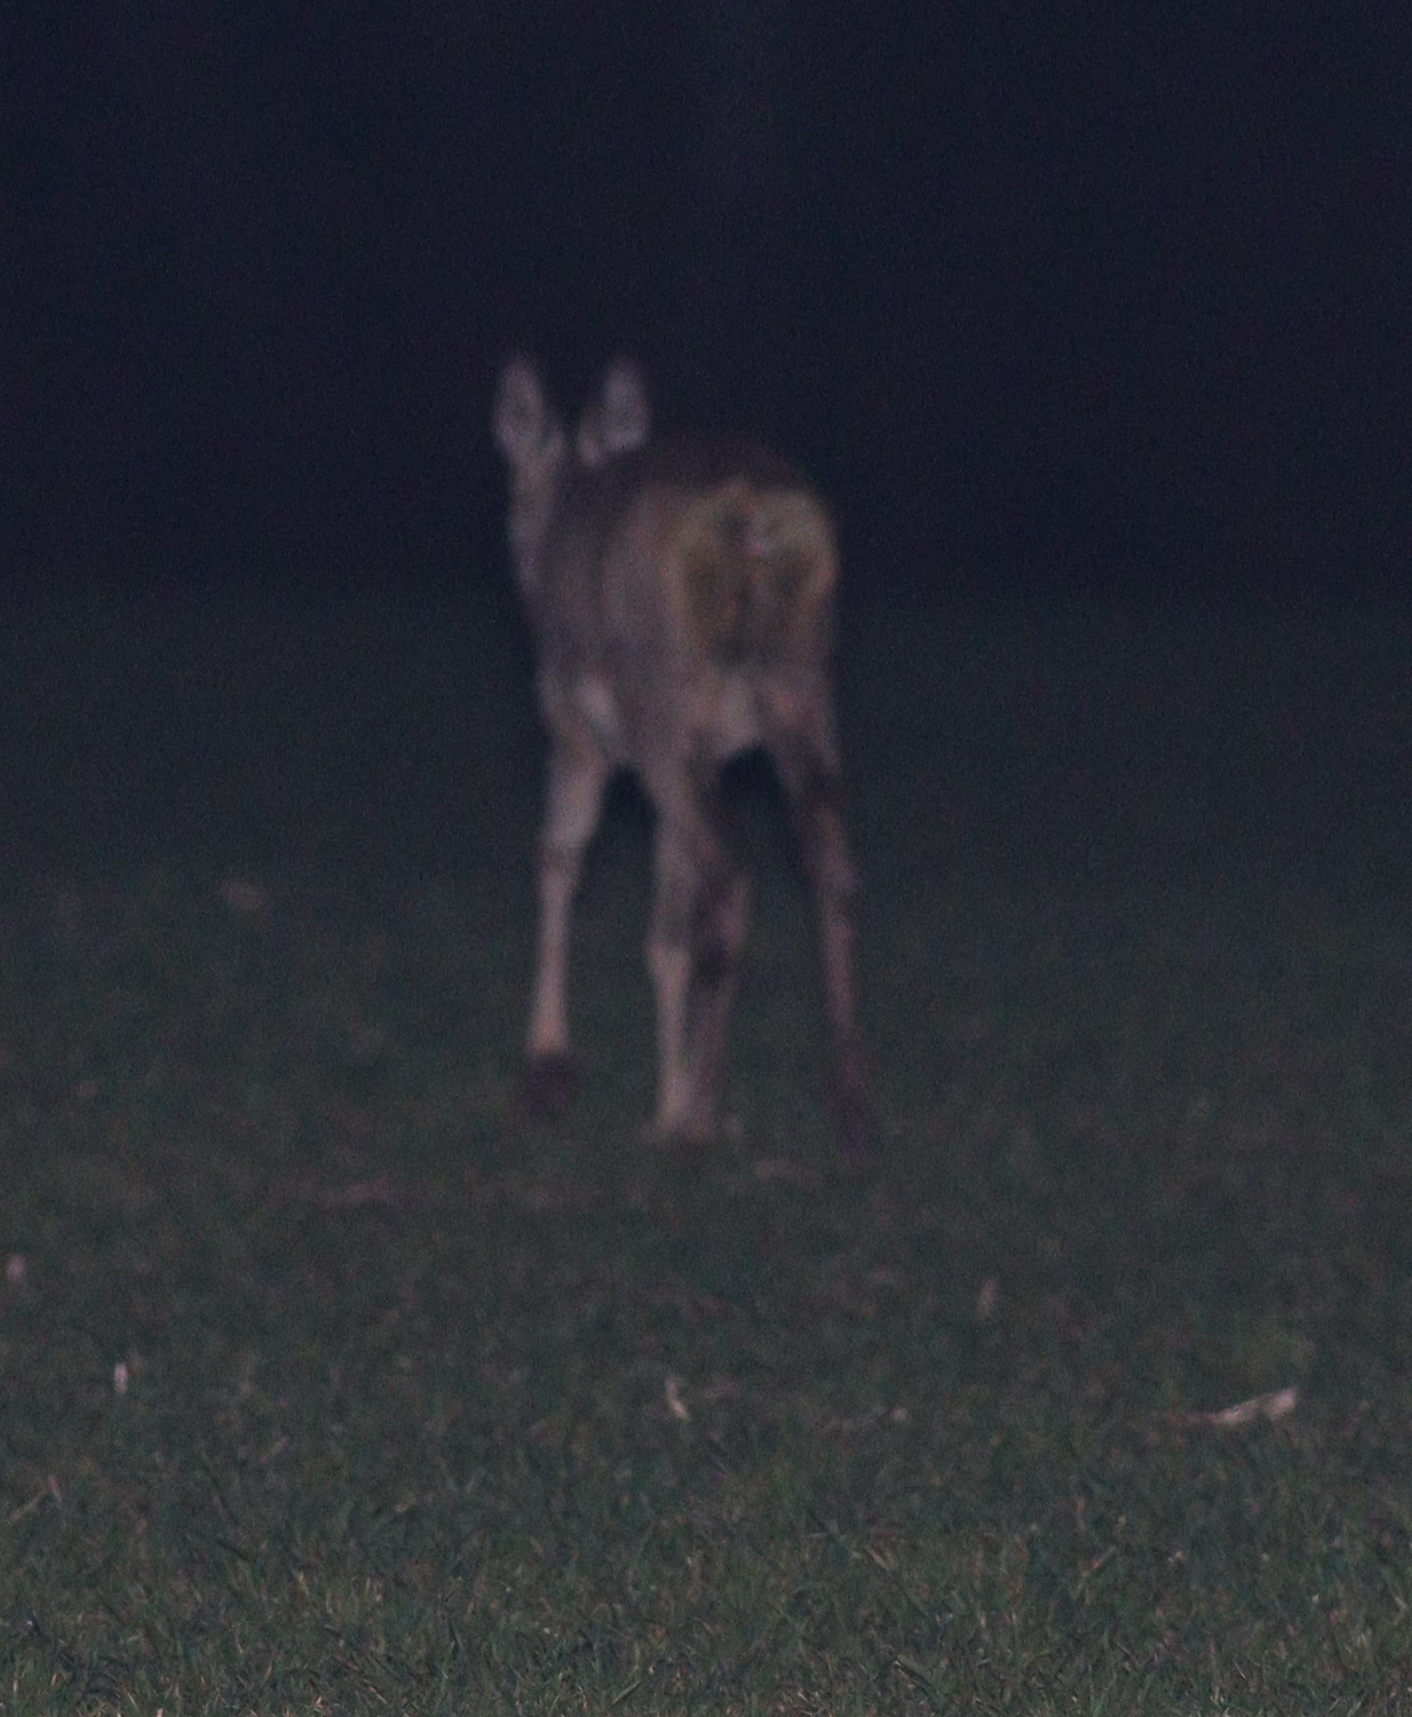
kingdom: Animalia
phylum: Chordata
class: Mammalia
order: Artiodactyla
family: Cervidae
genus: Capreolus
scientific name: Capreolus capreolus
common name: Western roe deer
